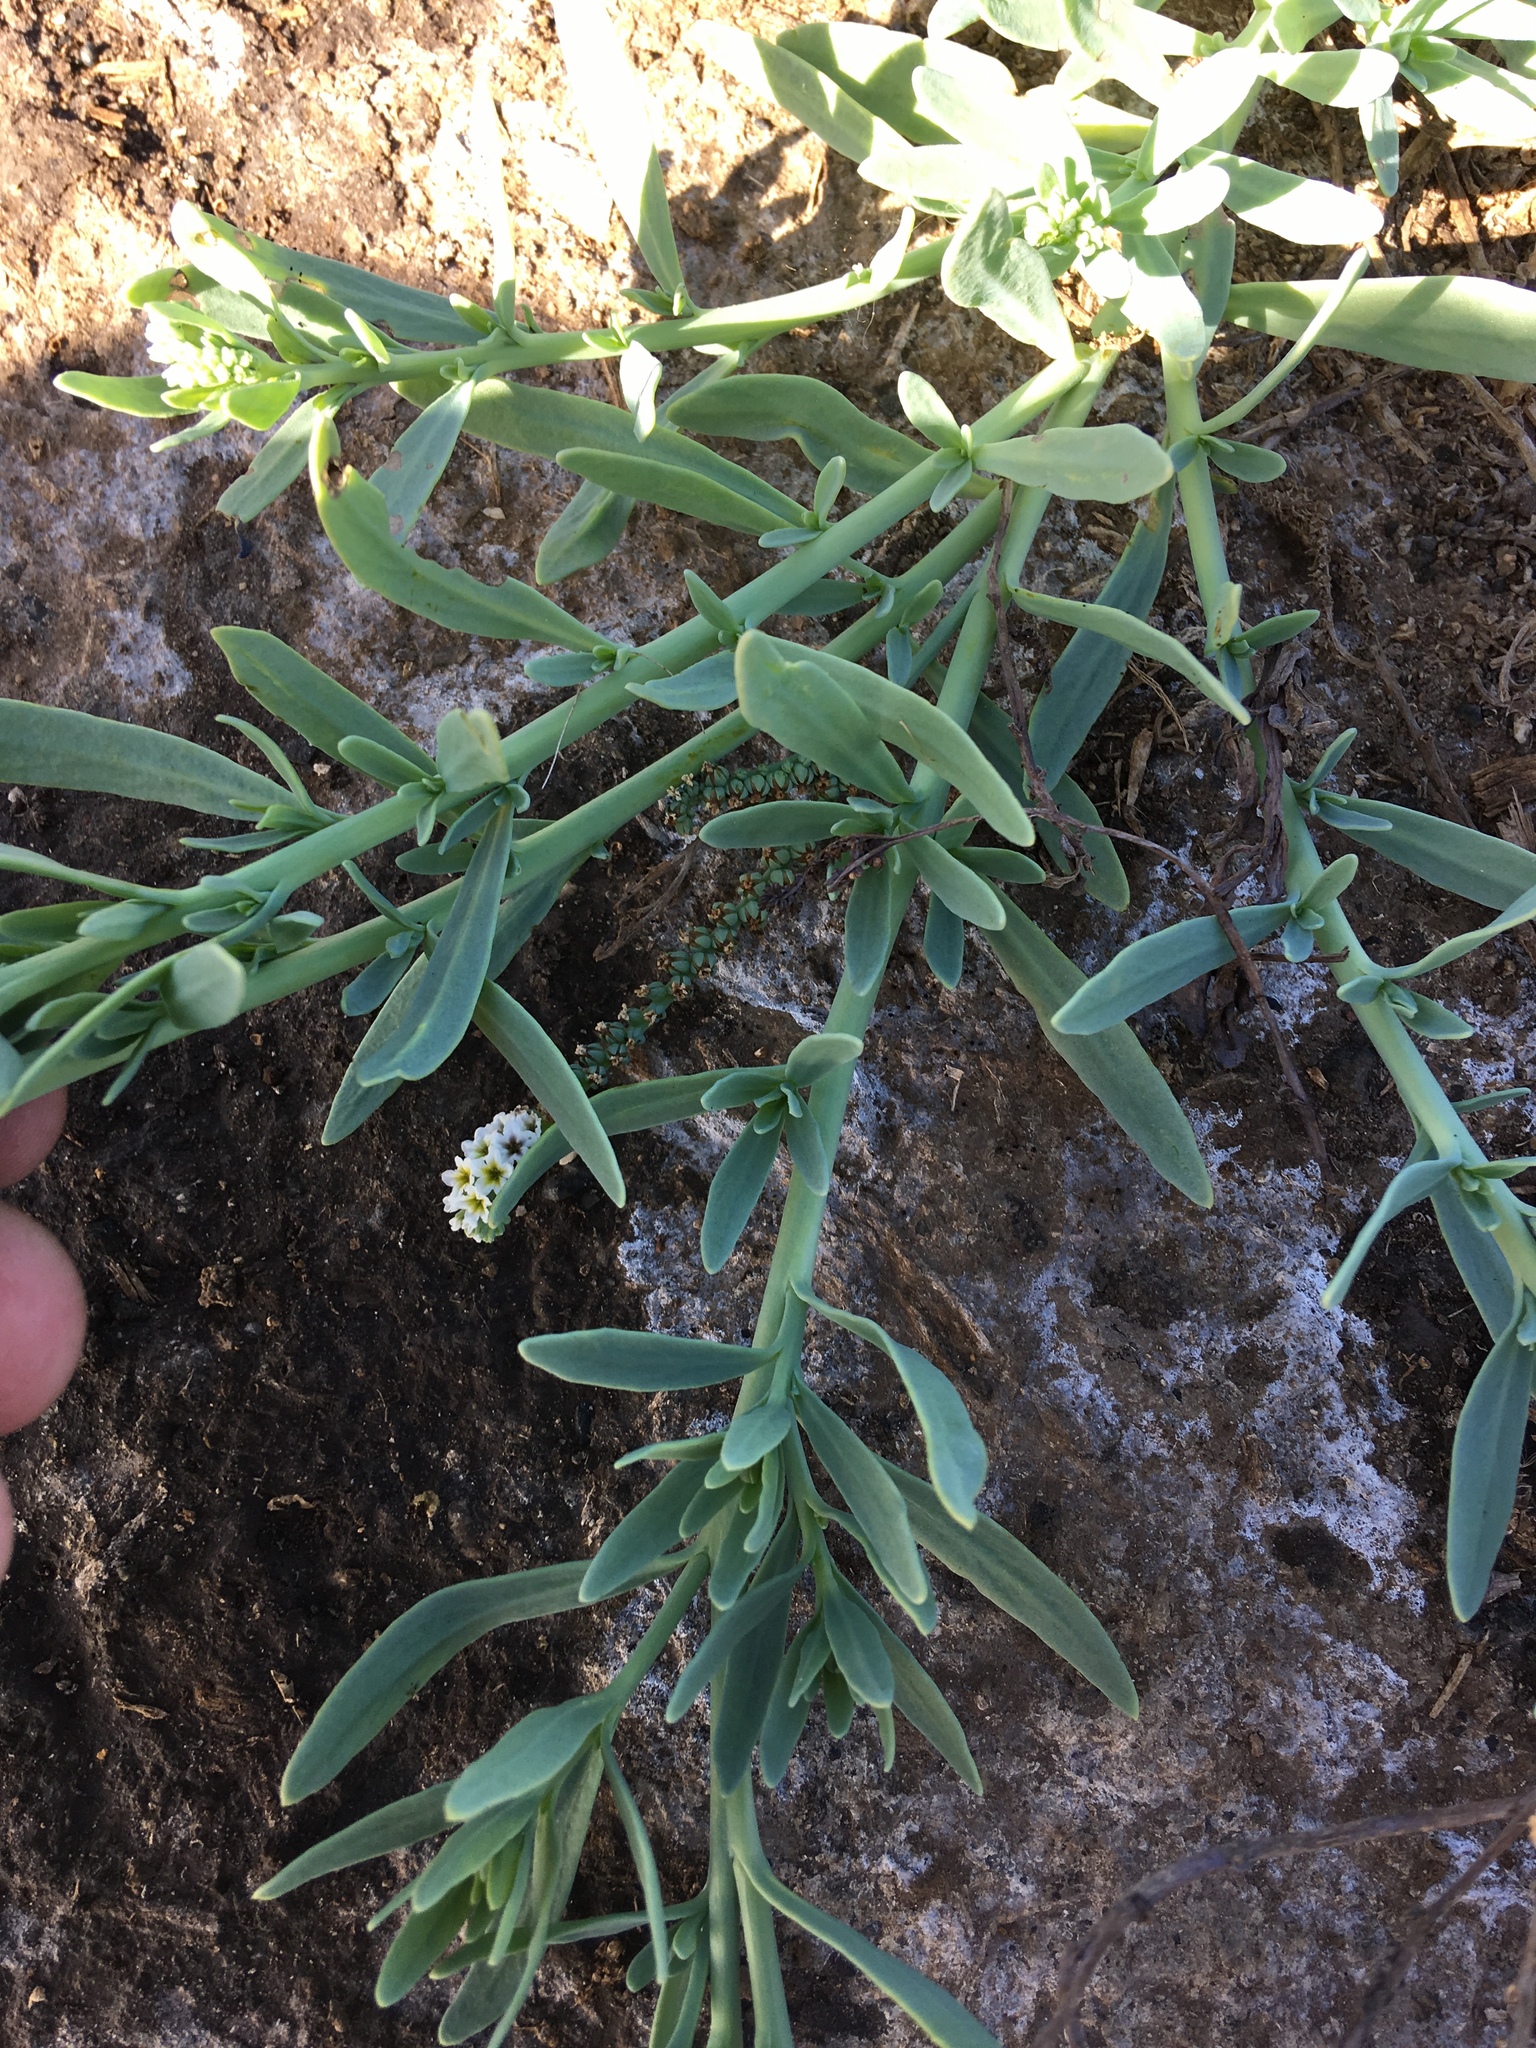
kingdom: Plantae
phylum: Tracheophyta
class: Magnoliopsida
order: Boraginales
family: Heliotropiaceae
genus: Heliotropium
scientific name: Heliotropium curassavicum
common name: Seaside heliotrope
